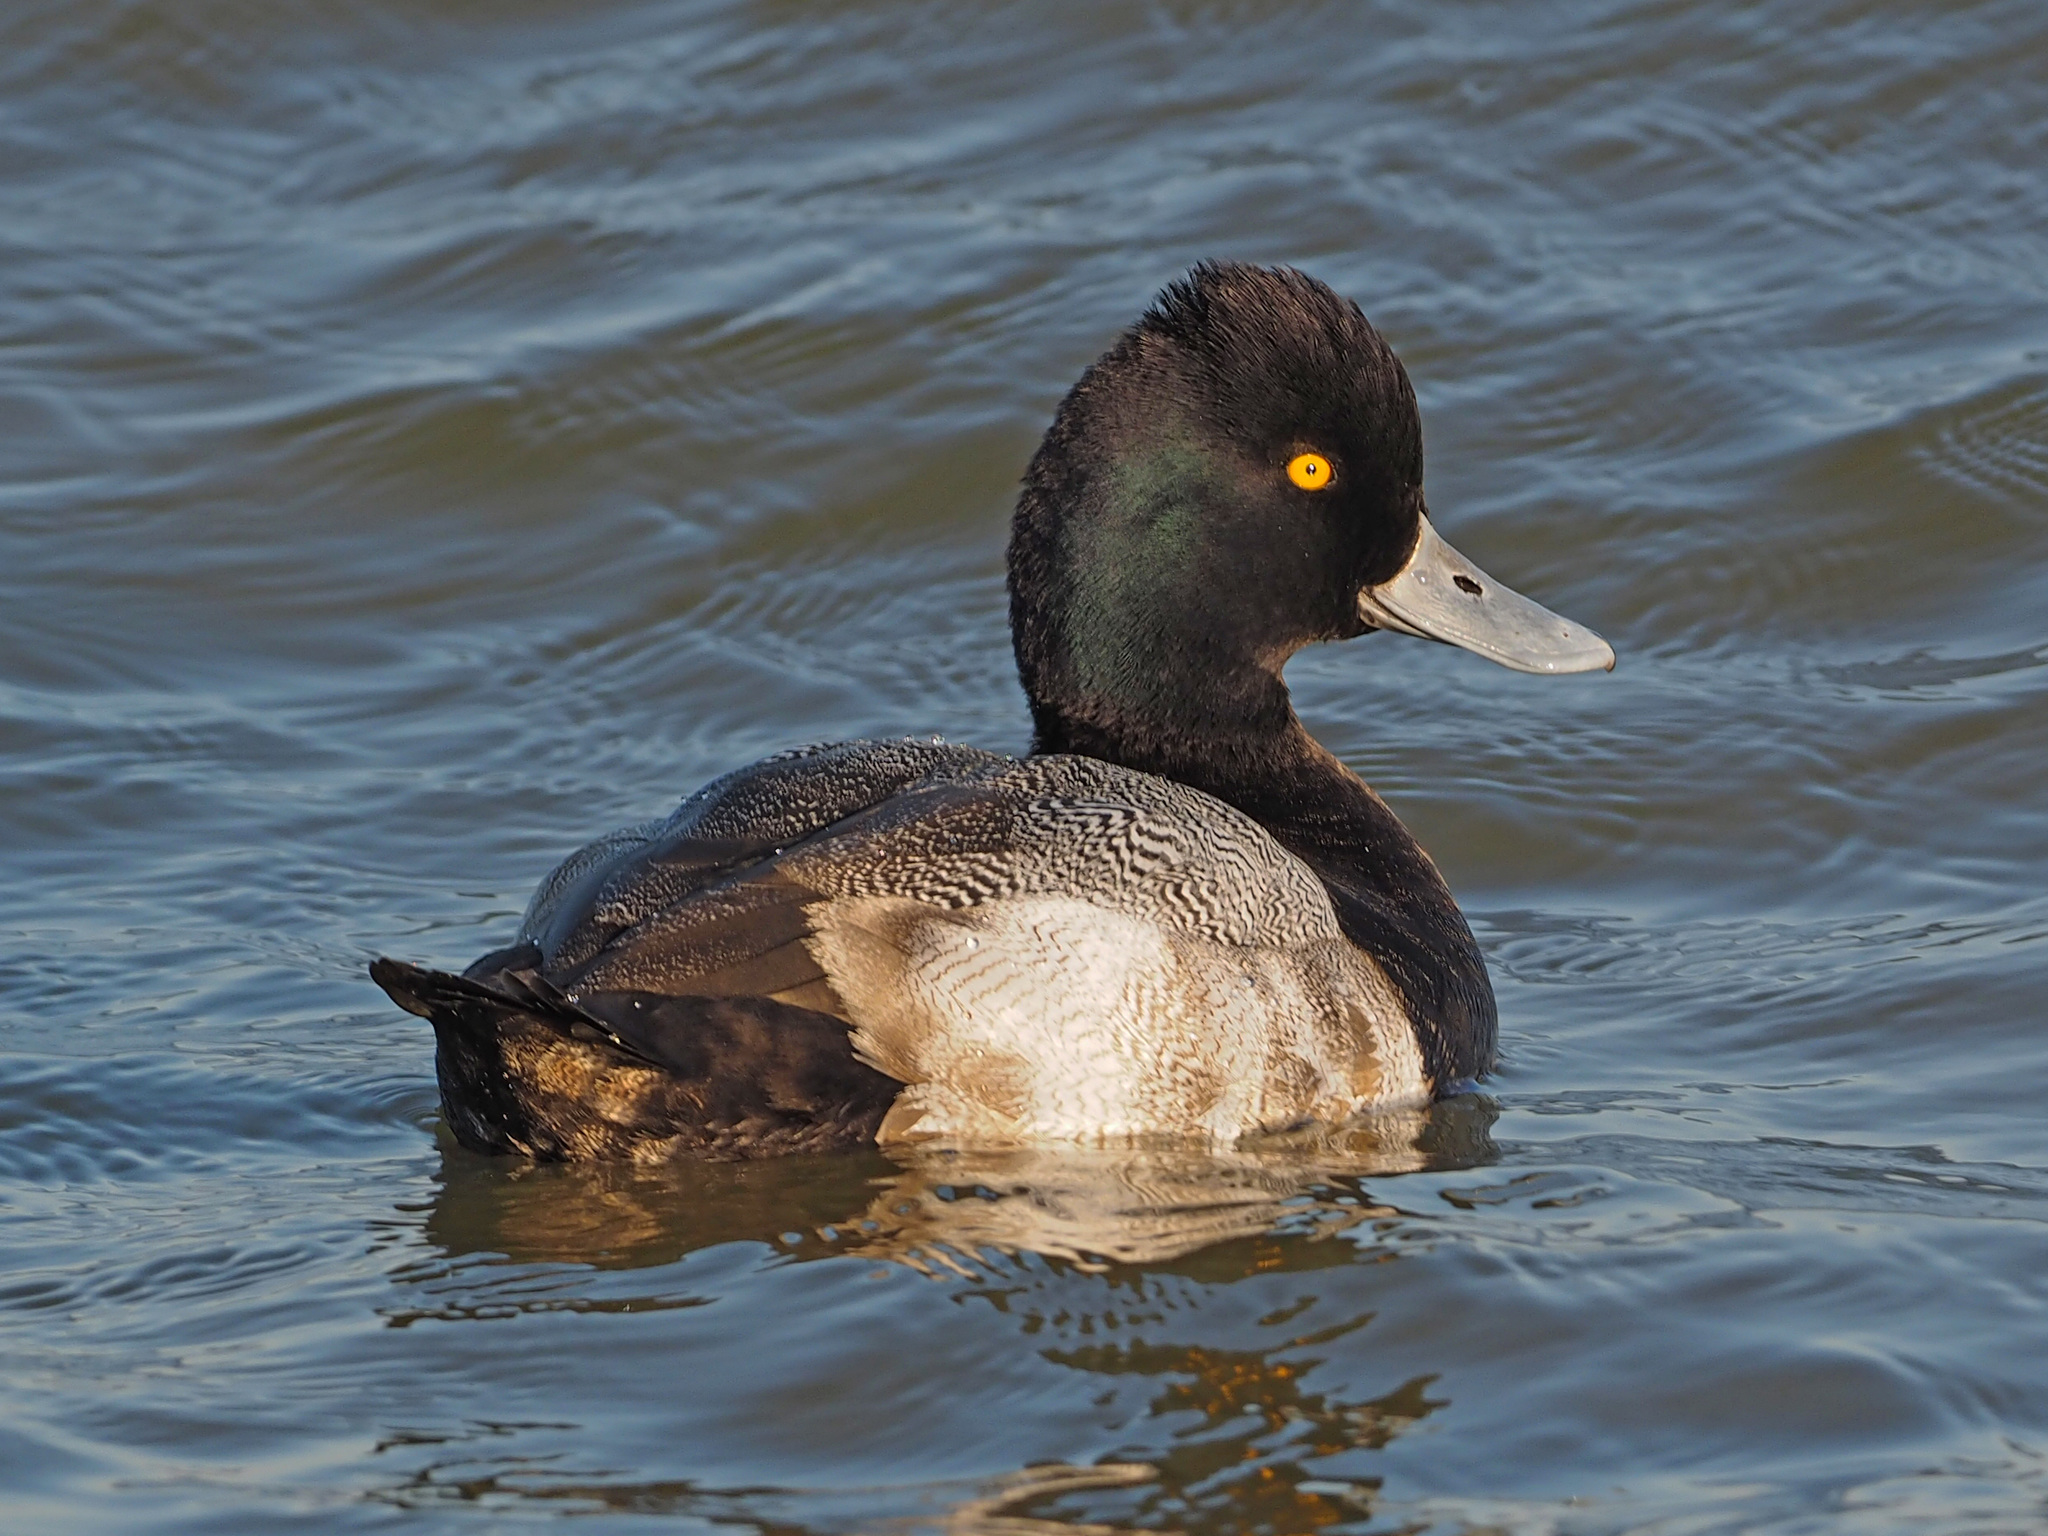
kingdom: Animalia
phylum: Chordata
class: Aves
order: Anseriformes
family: Anatidae
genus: Aythya
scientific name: Aythya affinis
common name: Lesser scaup
